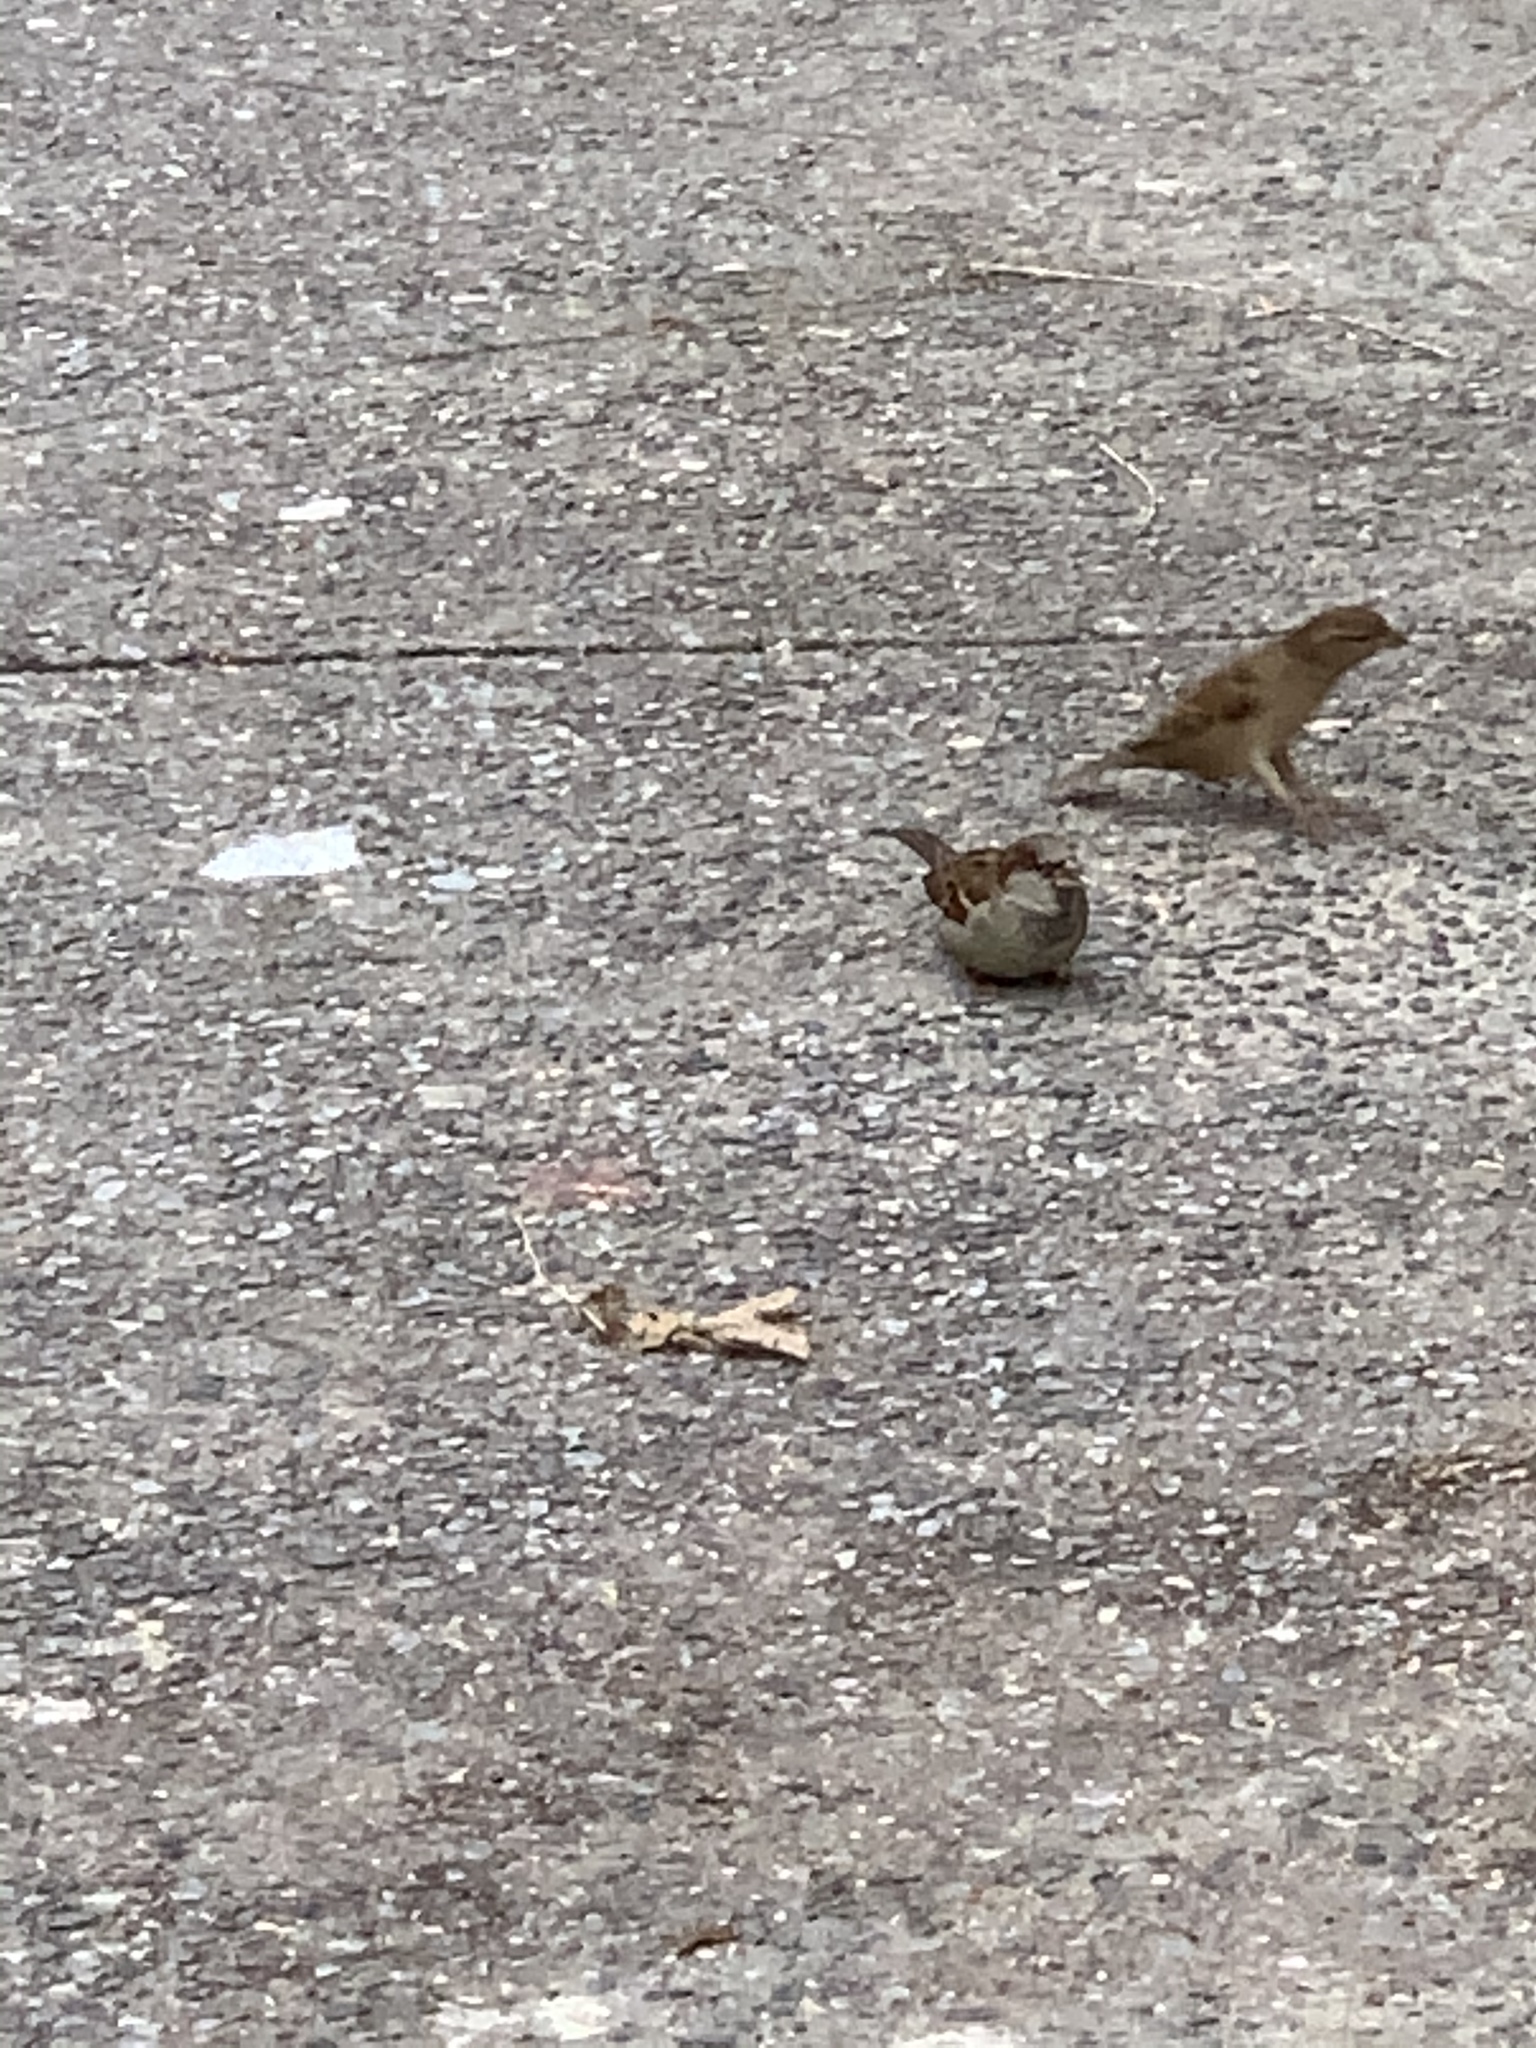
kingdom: Animalia
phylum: Chordata
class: Aves
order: Passeriformes
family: Passeridae
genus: Passer
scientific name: Passer domesticus
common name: House sparrow
